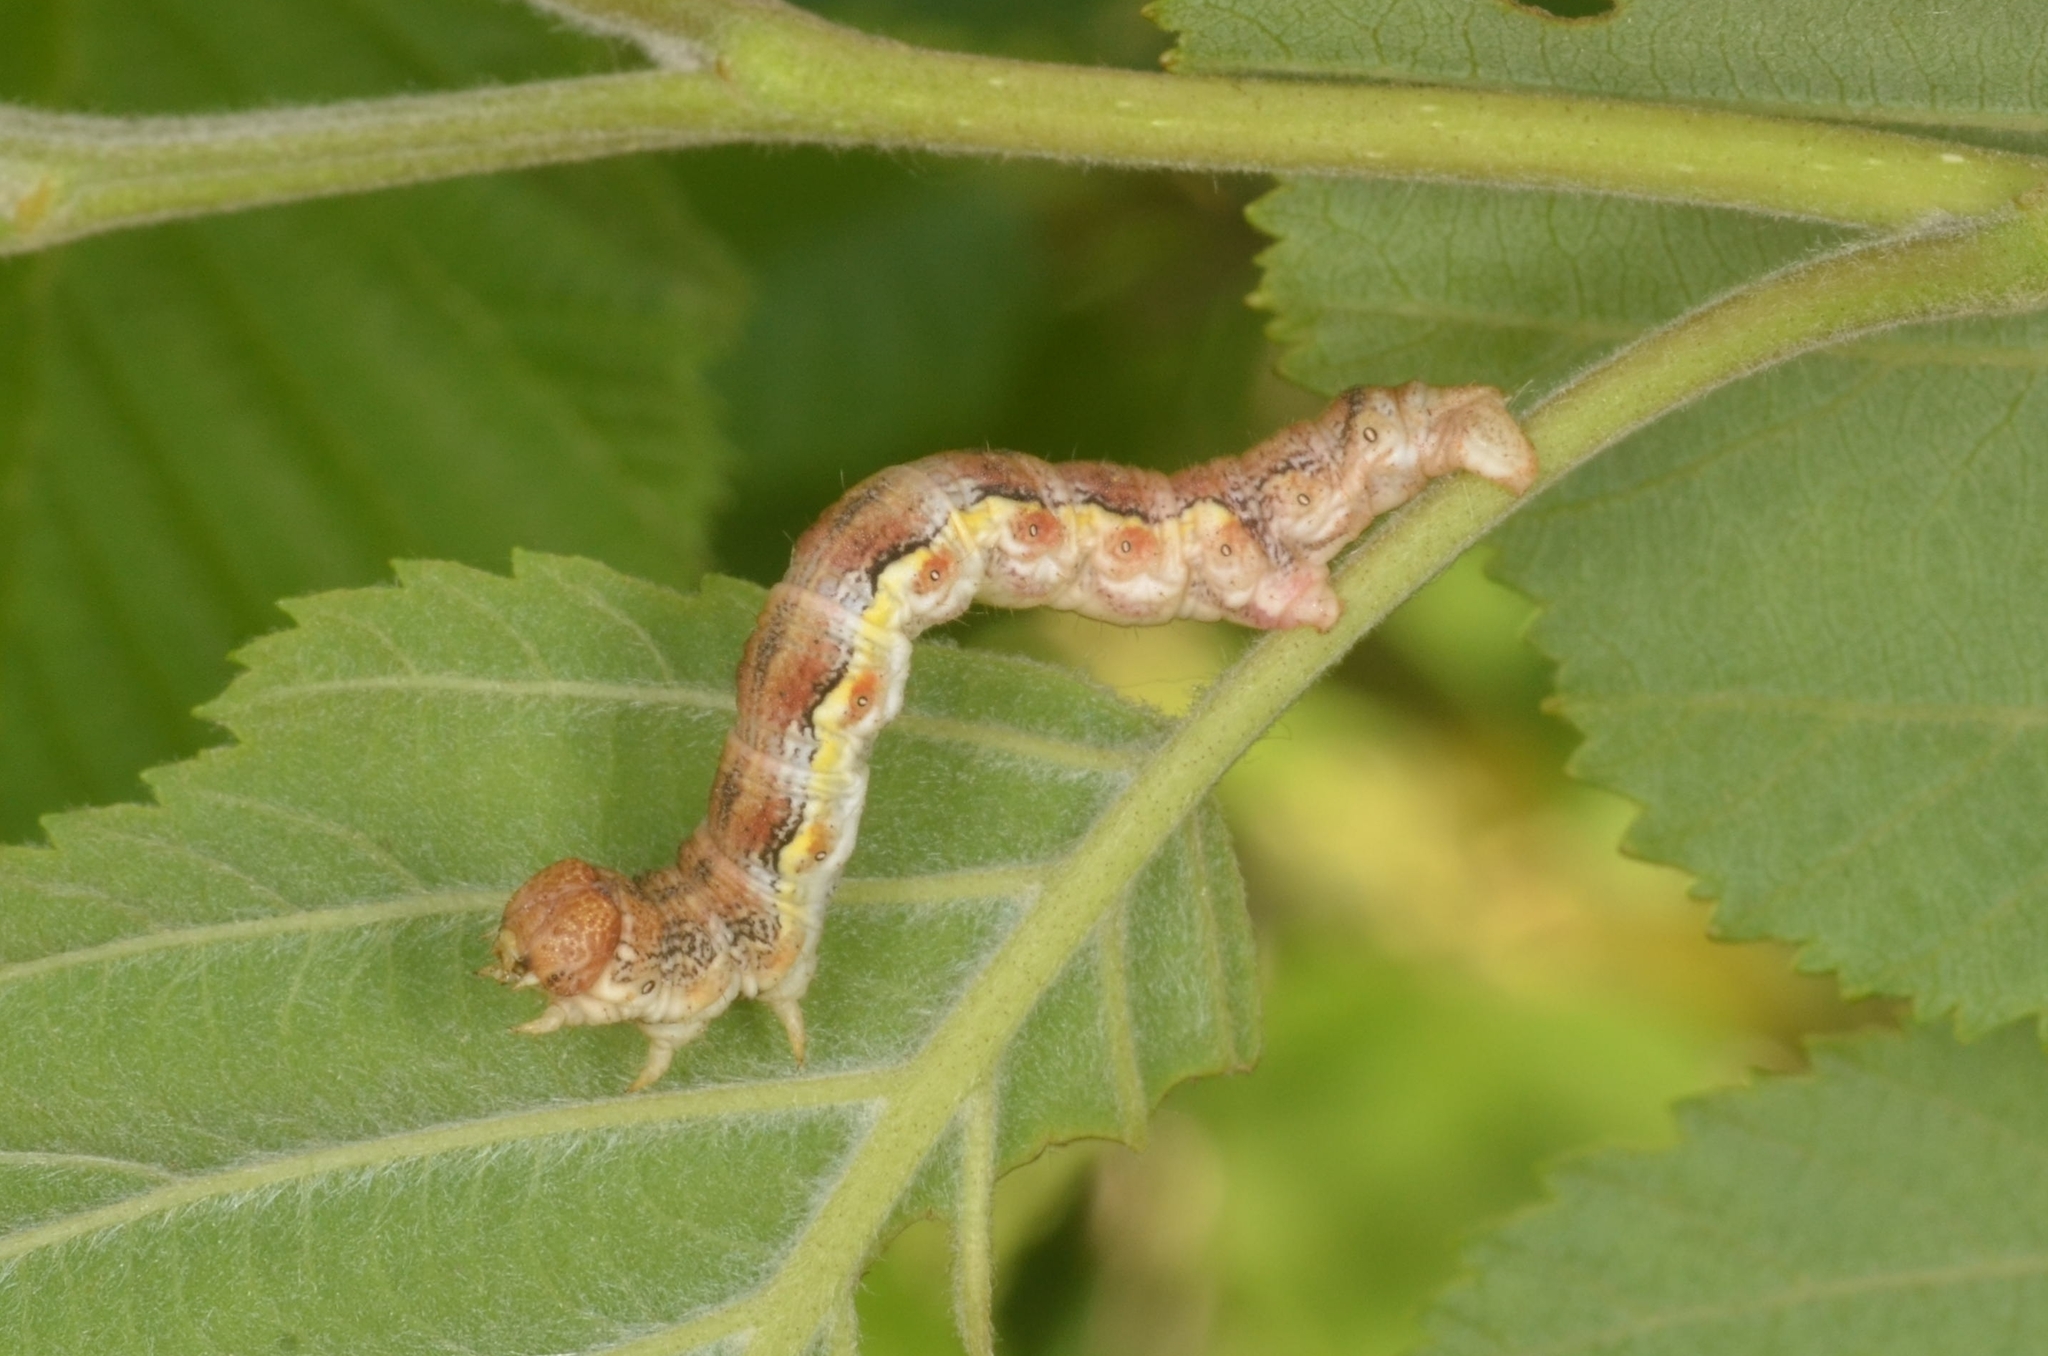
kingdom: Animalia
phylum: Arthropoda
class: Insecta
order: Lepidoptera
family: Geometridae
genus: Erannis
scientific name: Erannis defoliaria
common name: Mottled umber
